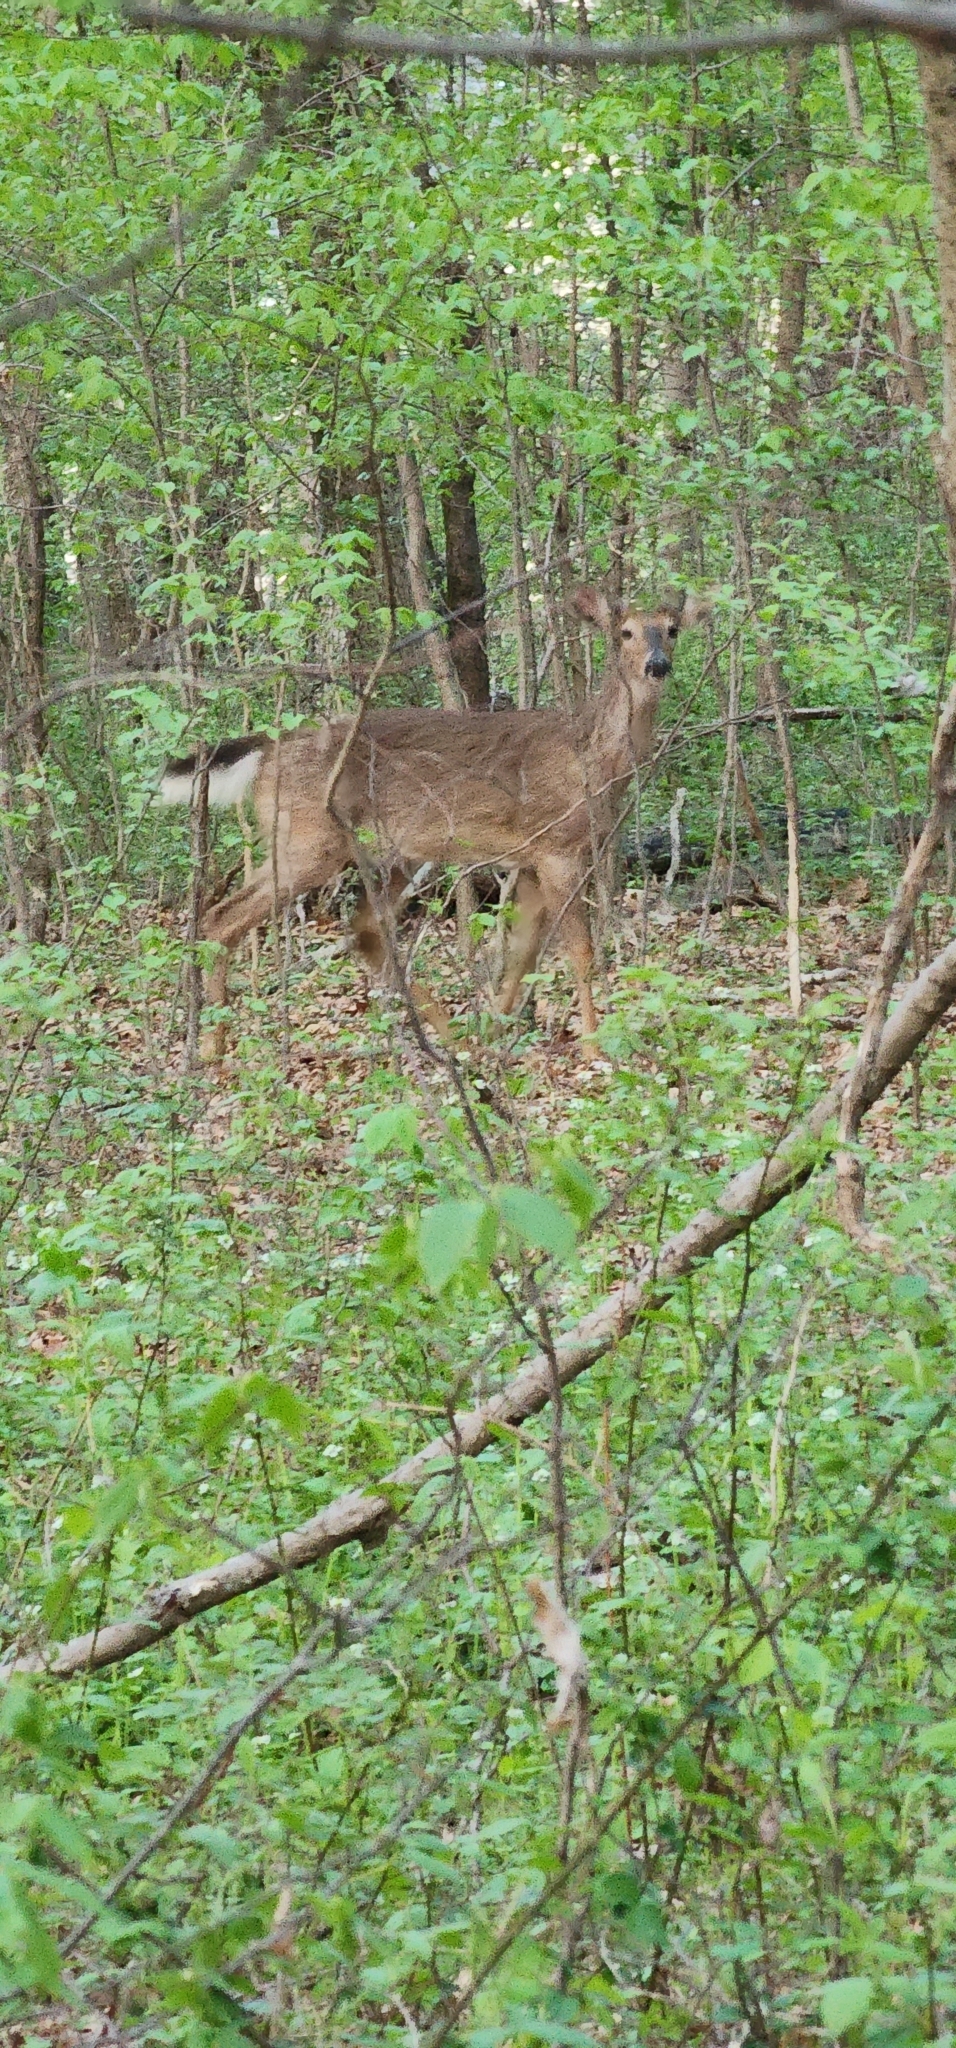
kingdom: Animalia
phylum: Chordata
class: Mammalia
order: Artiodactyla
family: Cervidae
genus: Odocoileus
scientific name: Odocoileus virginianus
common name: White-tailed deer
